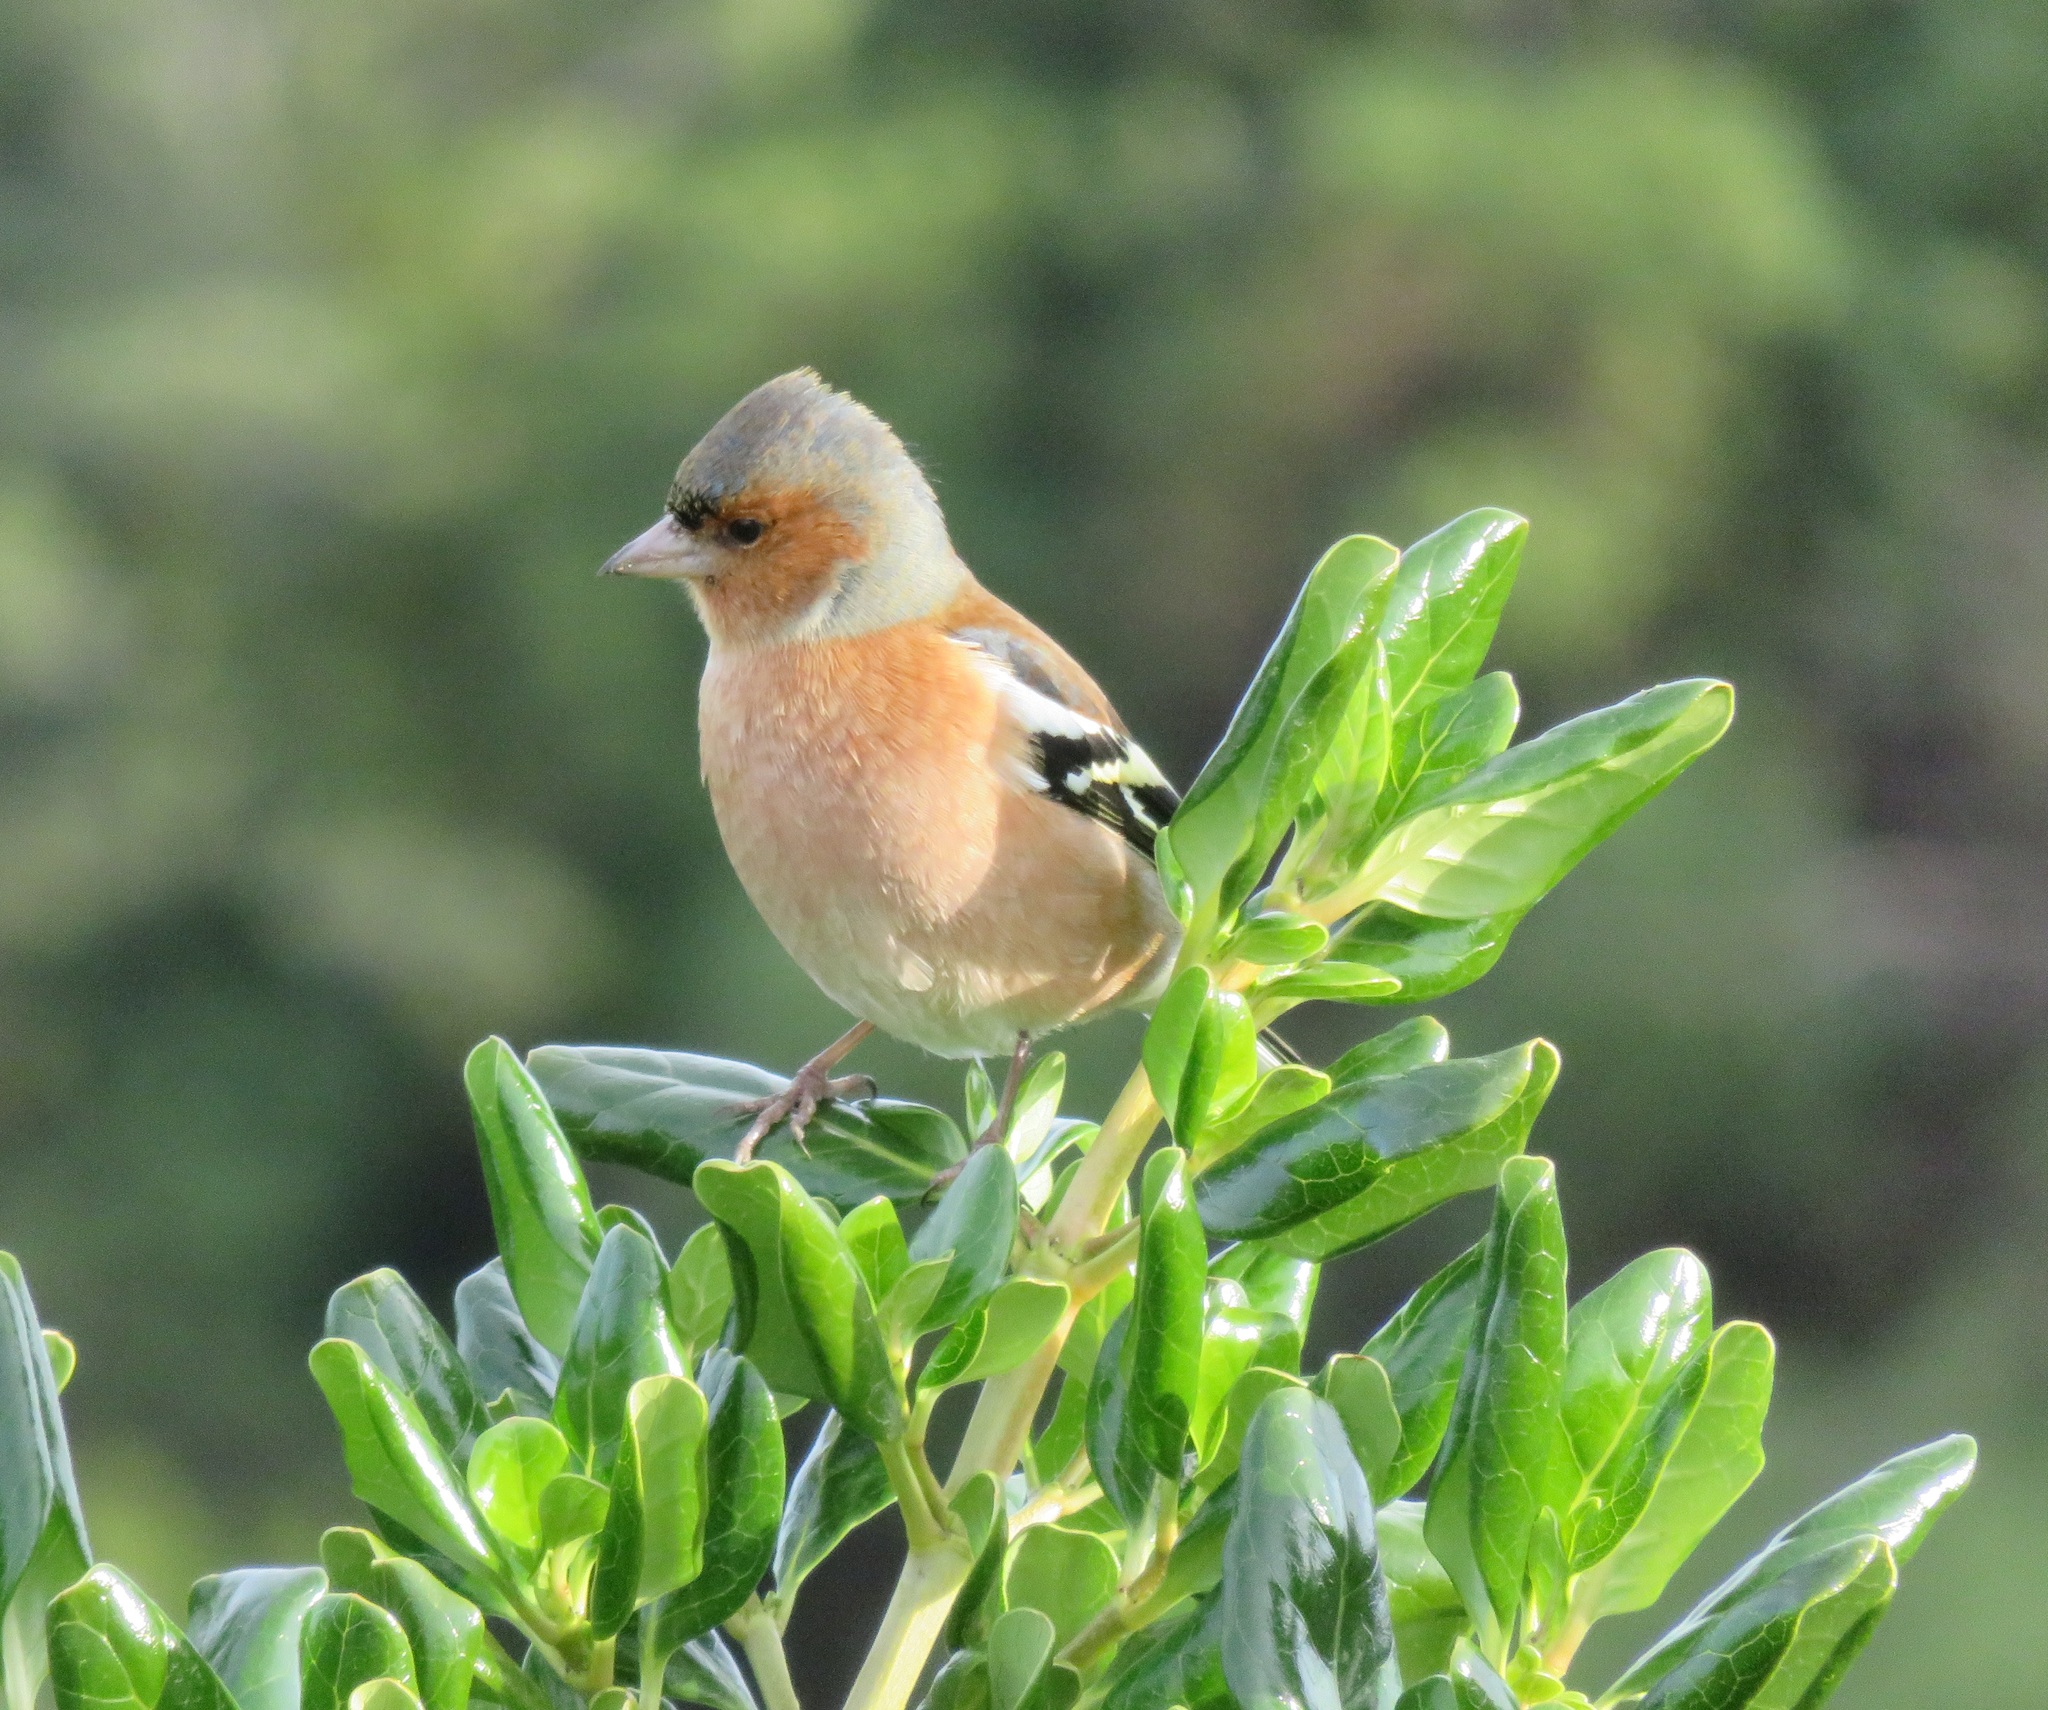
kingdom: Animalia
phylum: Chordata
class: Aves
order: Passeriformes
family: Fringillidae
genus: Fringilla
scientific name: Fringilla coelebs
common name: Common chaffinch
